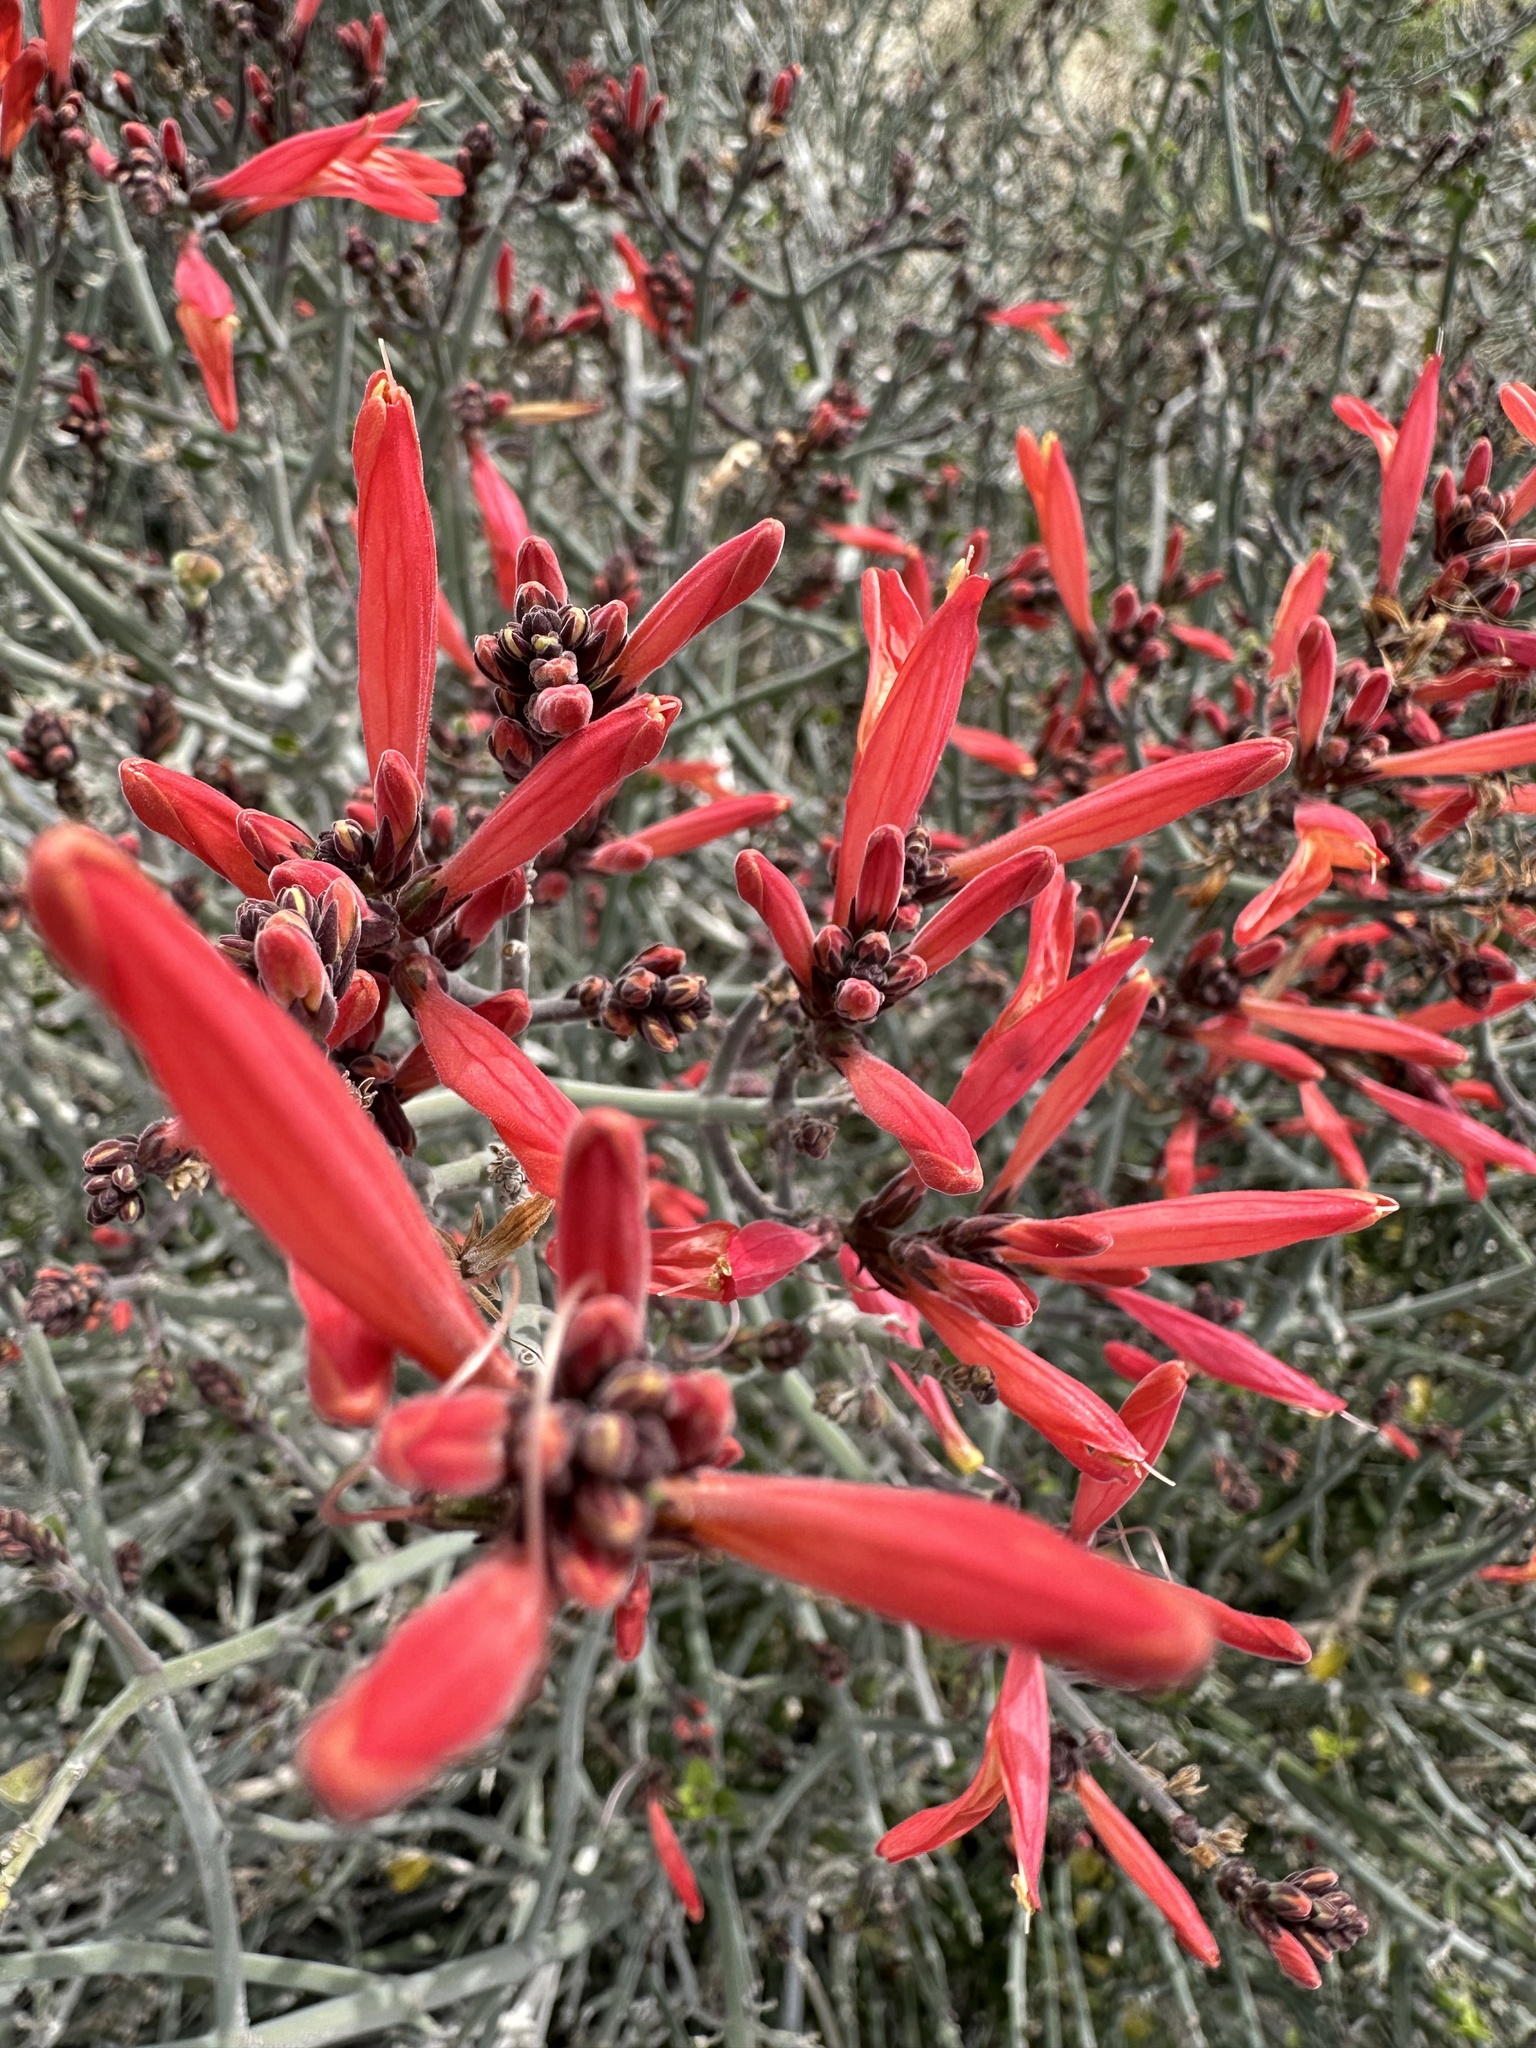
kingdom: Plantae
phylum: Tracheophyta
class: Magnoliopsida
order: Lamiales
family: Acanthaceae
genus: Justicia
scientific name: Justicia californica
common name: Chuparosa-honeysuckle
